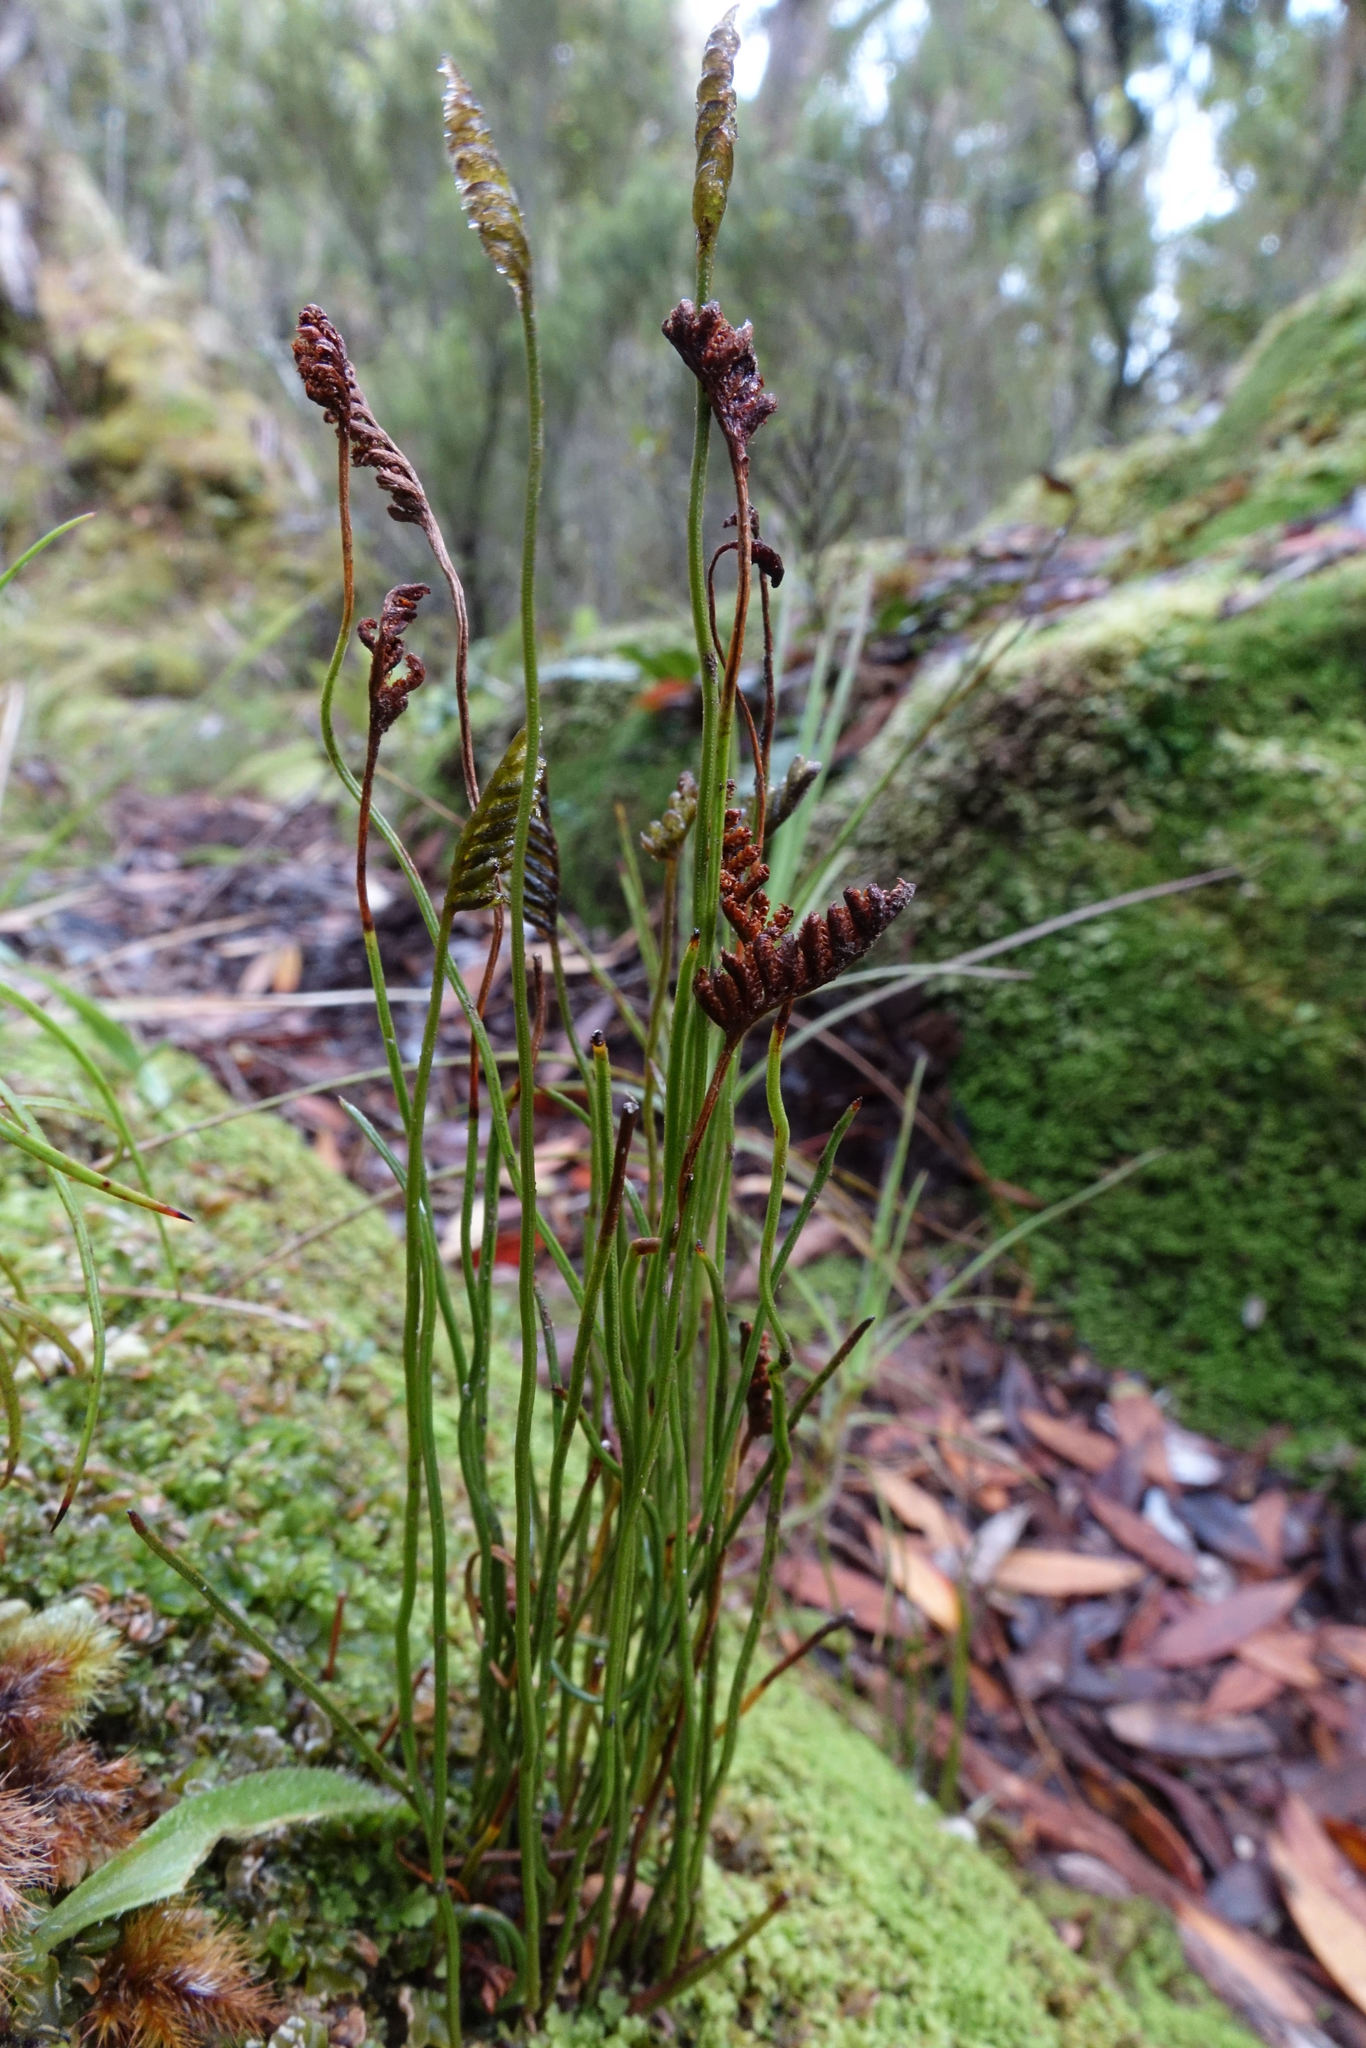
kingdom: Plantae
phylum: Tracheophyta
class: Polypodiopsida
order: Schizaeales
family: Schizaeaceae
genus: Microschizaea
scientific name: Microschizaea australis
